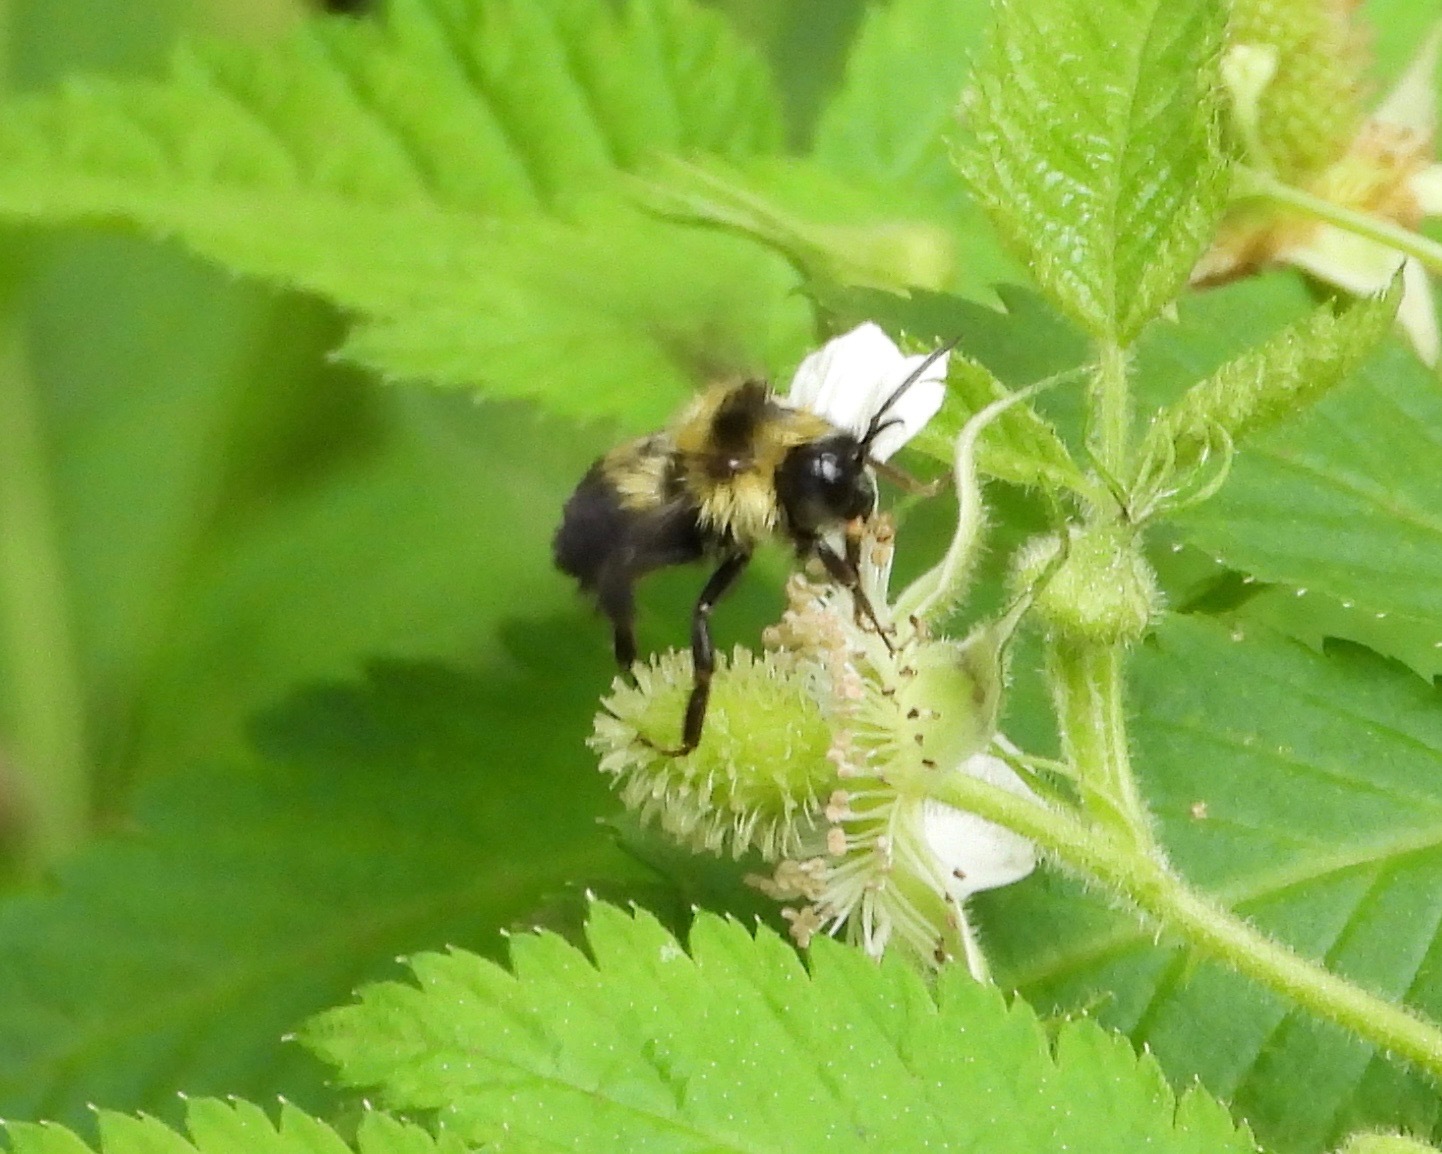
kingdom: Animalia
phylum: Arthropoda
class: Insecta
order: Hymenoptera
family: Apidae
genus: Bombus
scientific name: Bombus wilmattae
